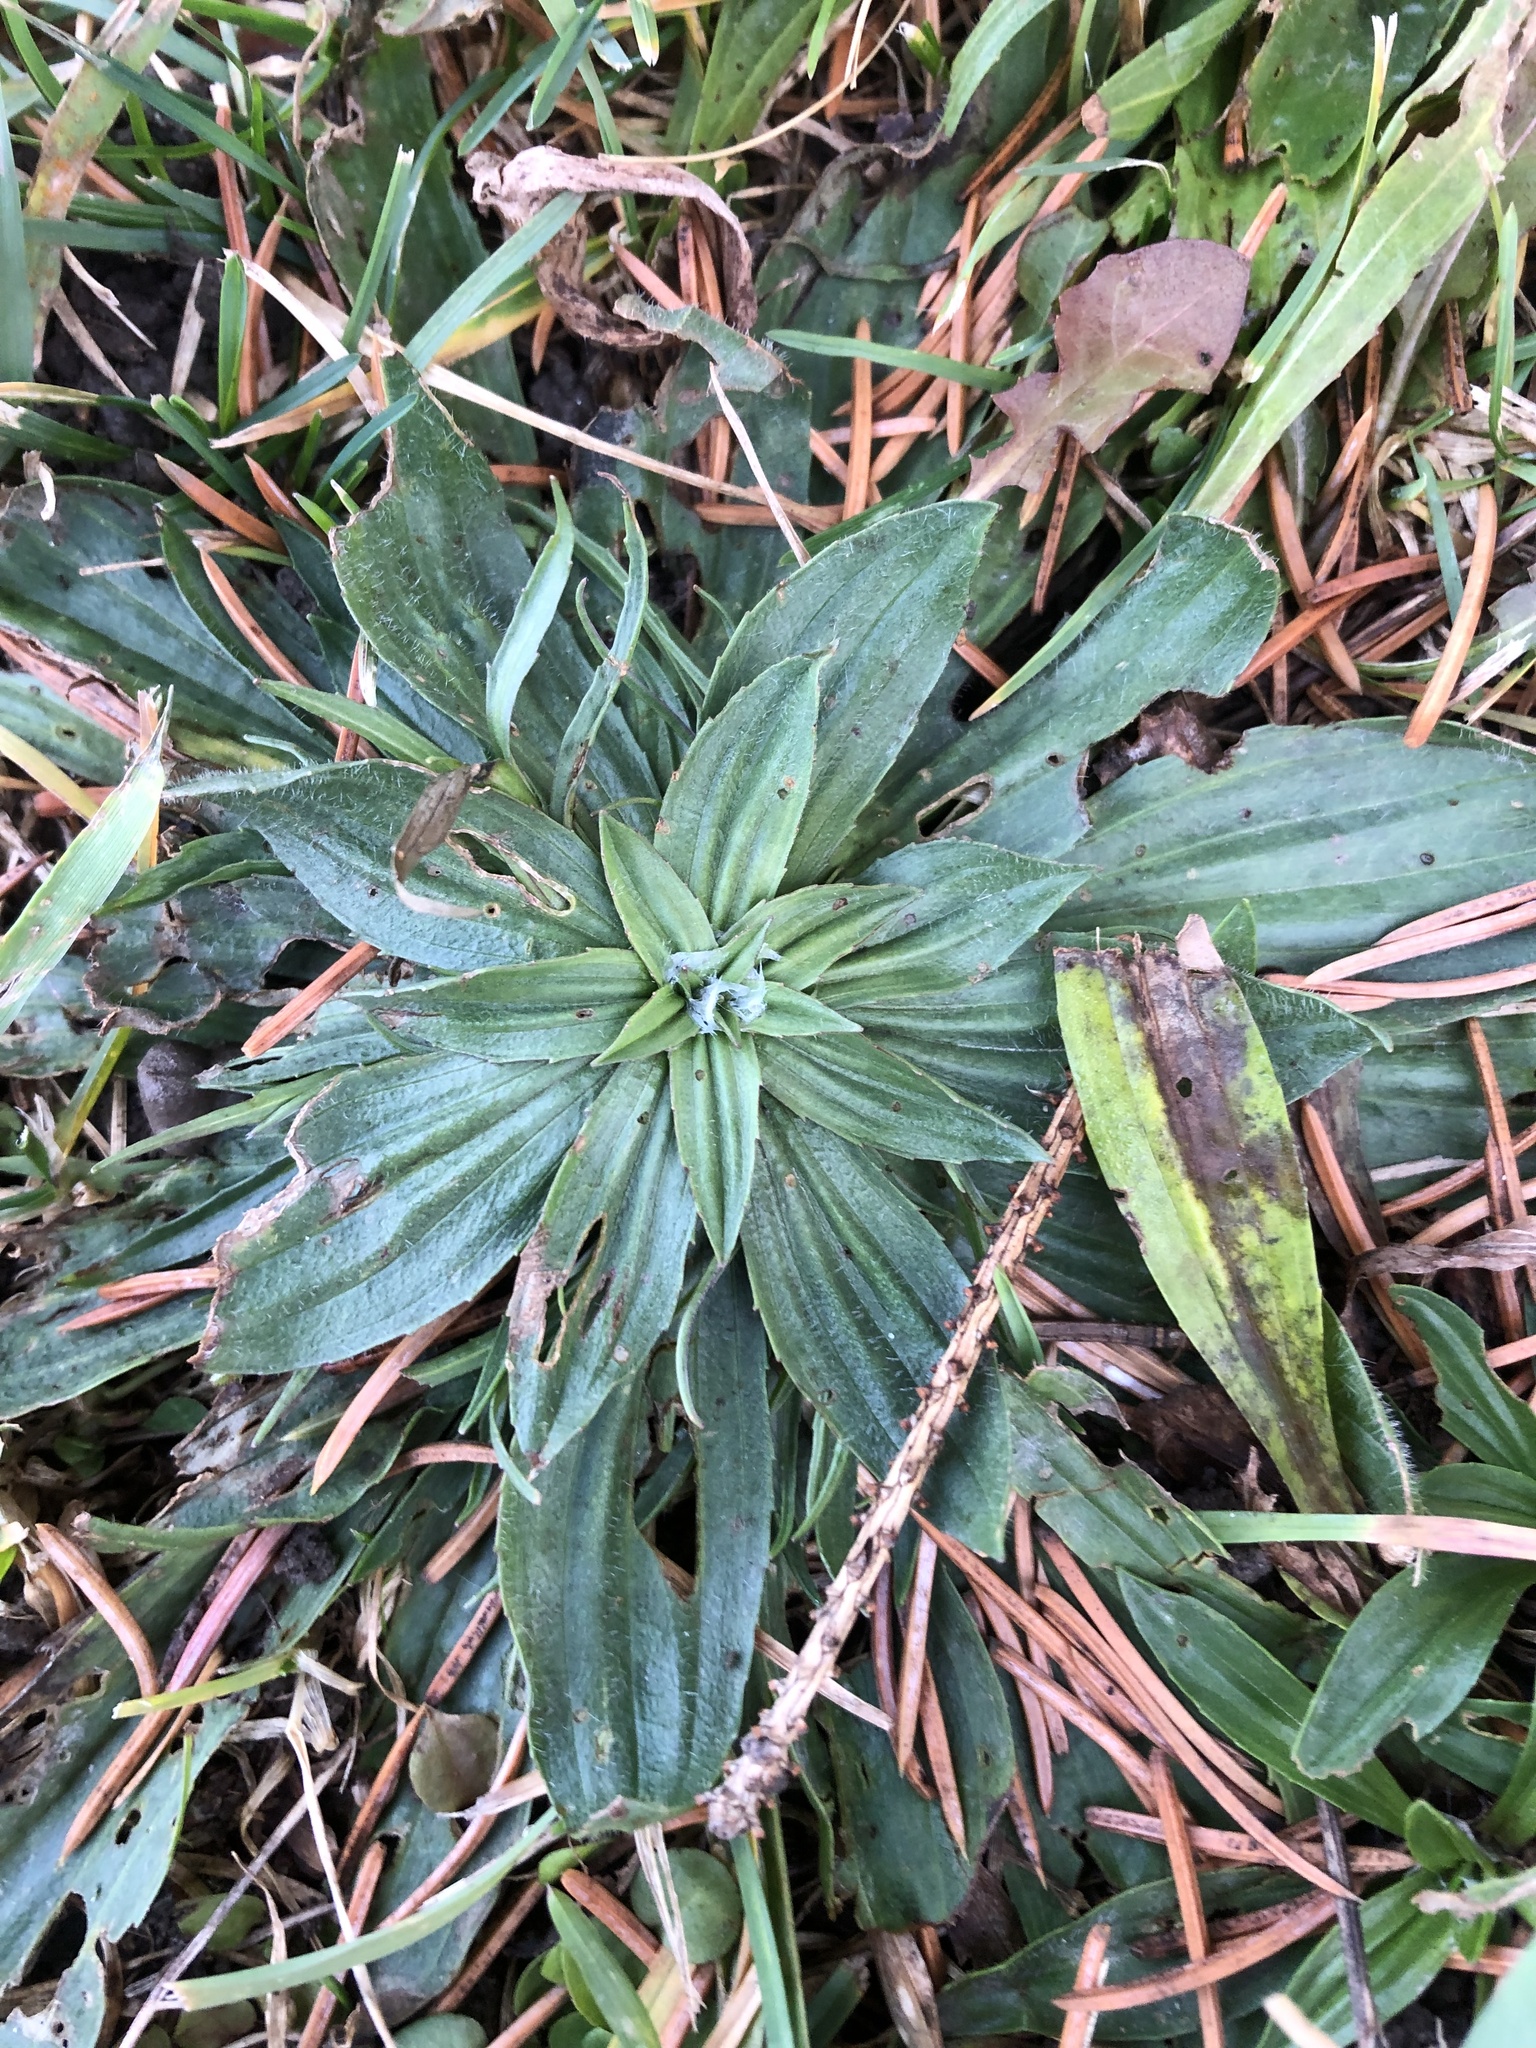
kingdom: Plantae
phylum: Tracheophyta
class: Magnoliopsida
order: Lamiales
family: Plantaginaceae
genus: Plantago
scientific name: Plantago lanceolata
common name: Ribwort plantain
